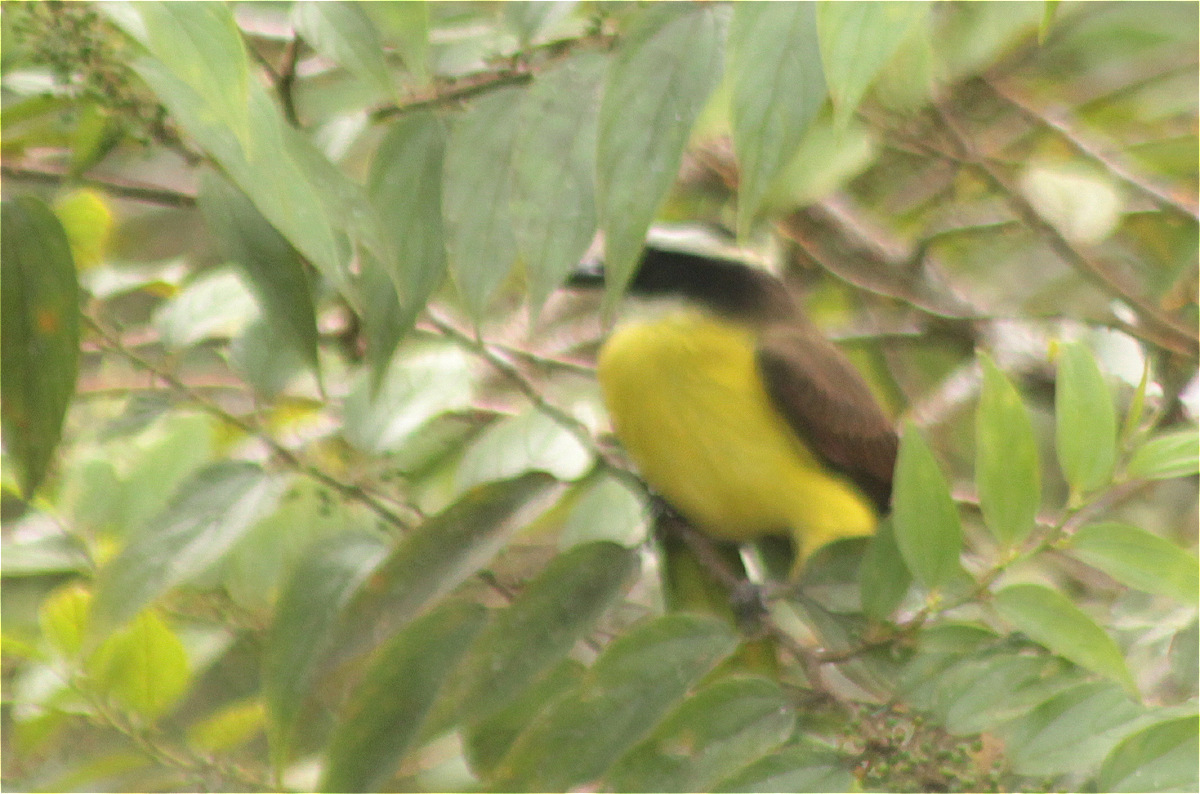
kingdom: Animalia
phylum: Chordata
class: Aves
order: Passeriformes
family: Tyrannidae
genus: Myiozetetes
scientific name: Myiozetetes similis
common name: Social flycatcher
